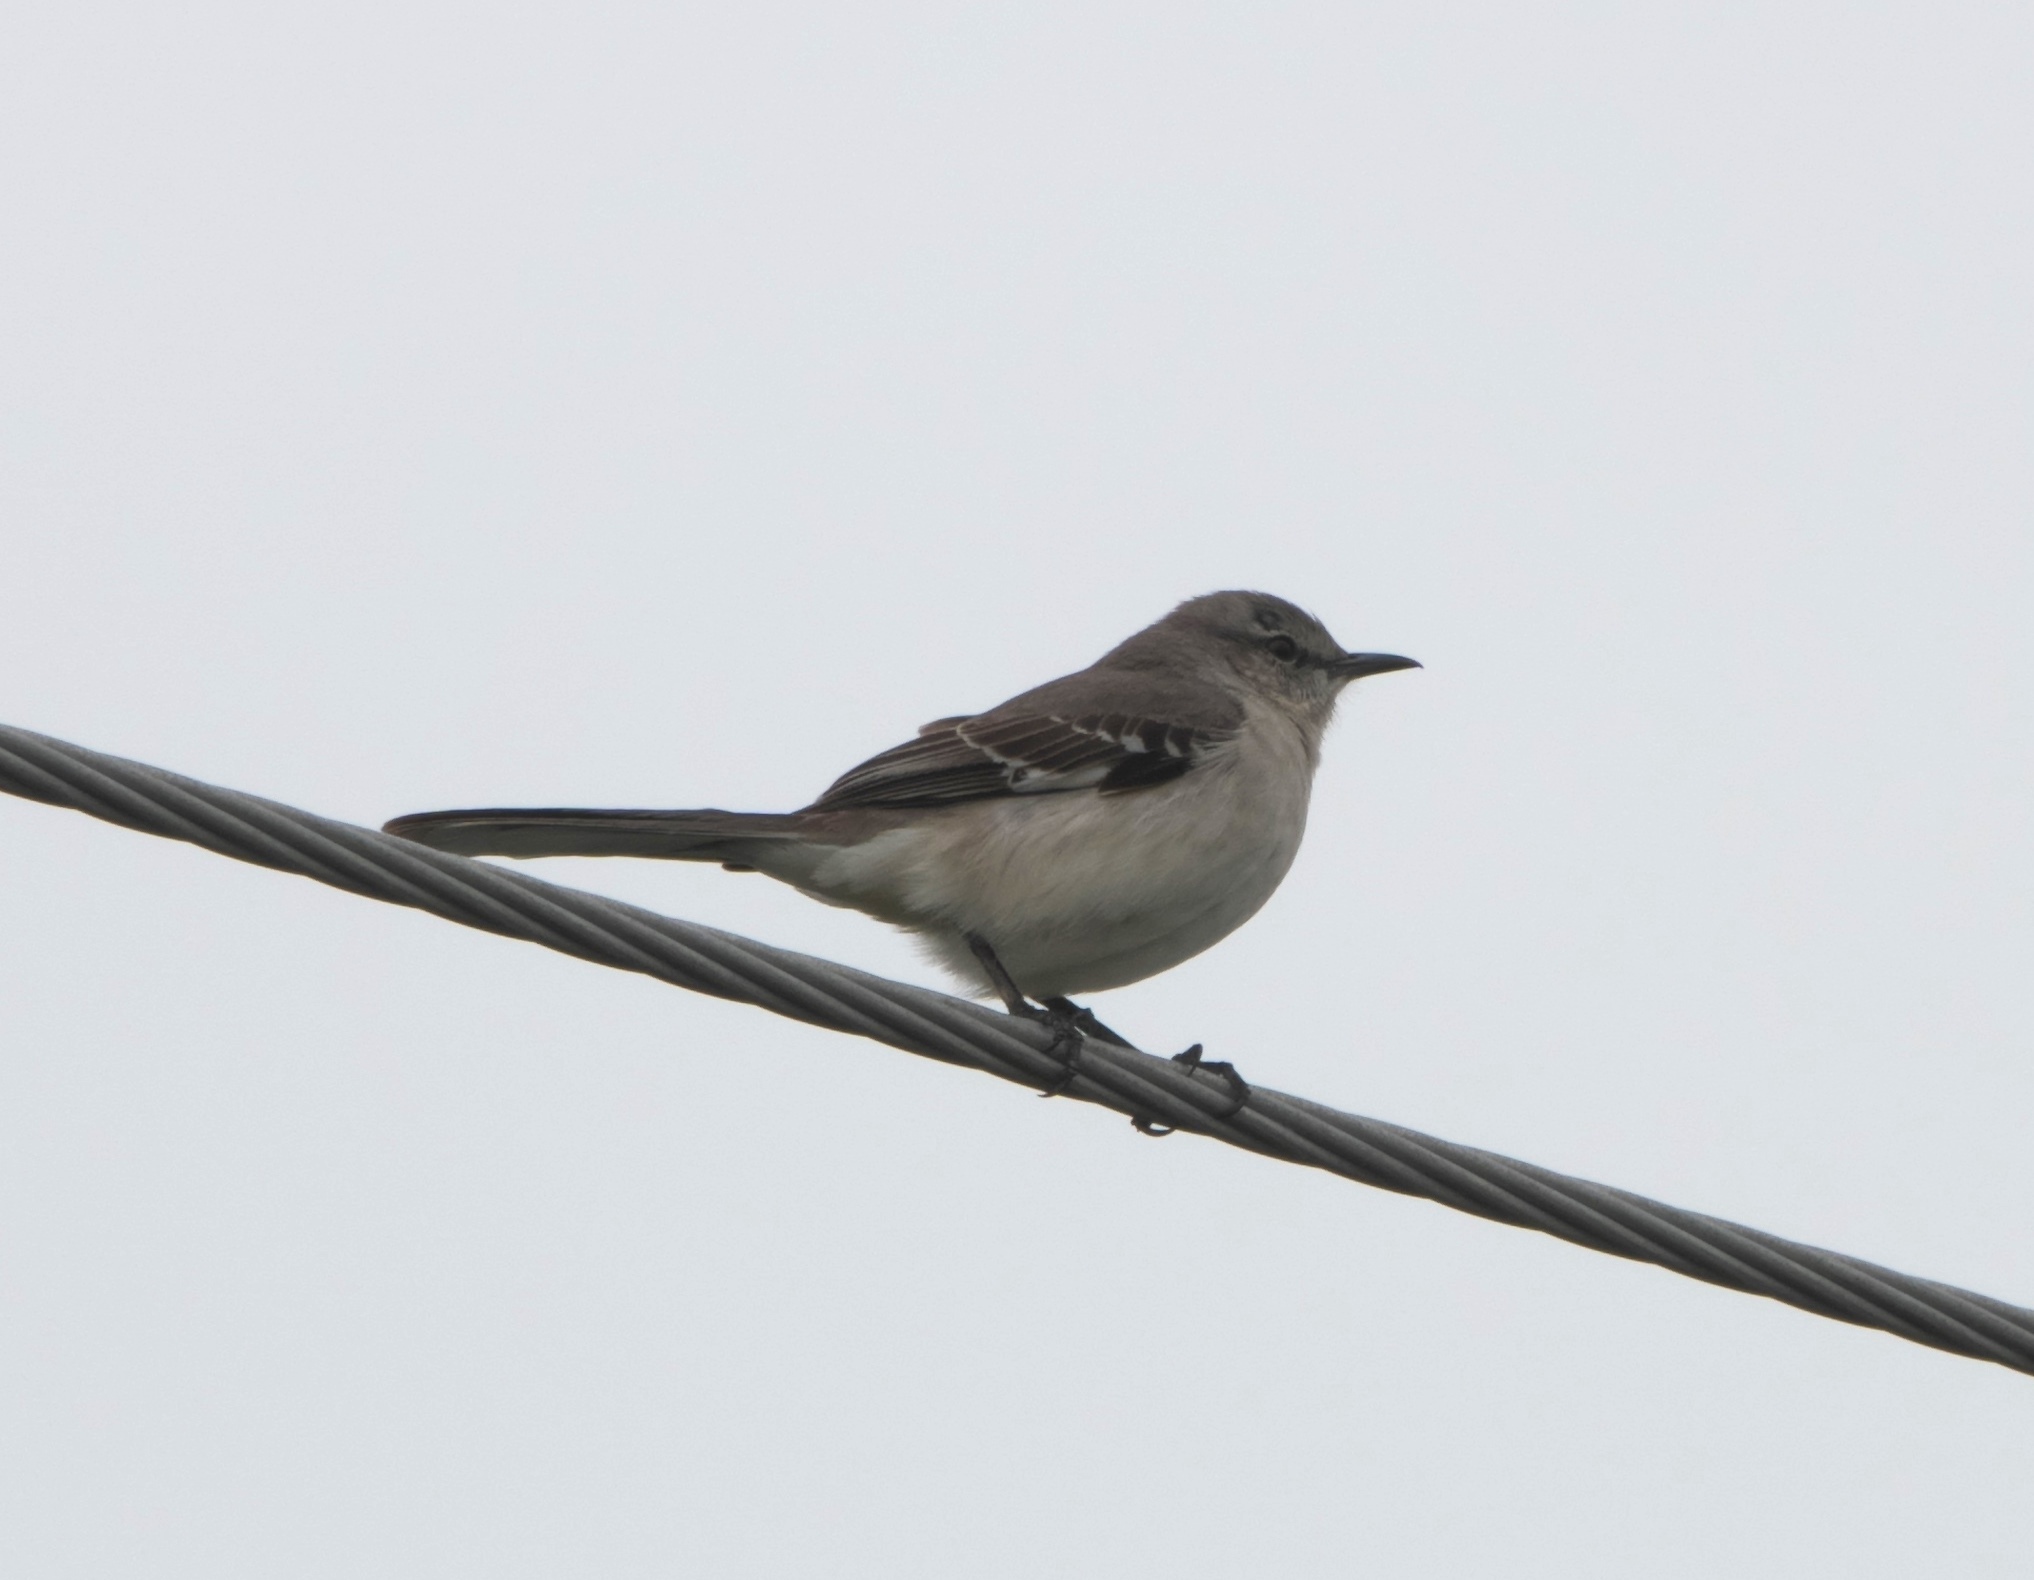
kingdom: Animalia
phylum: Chordata
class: Aves
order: Passeriformes
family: Mimidae
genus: Mimus
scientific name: Mimus polyglottos
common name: Northern mockingbird
